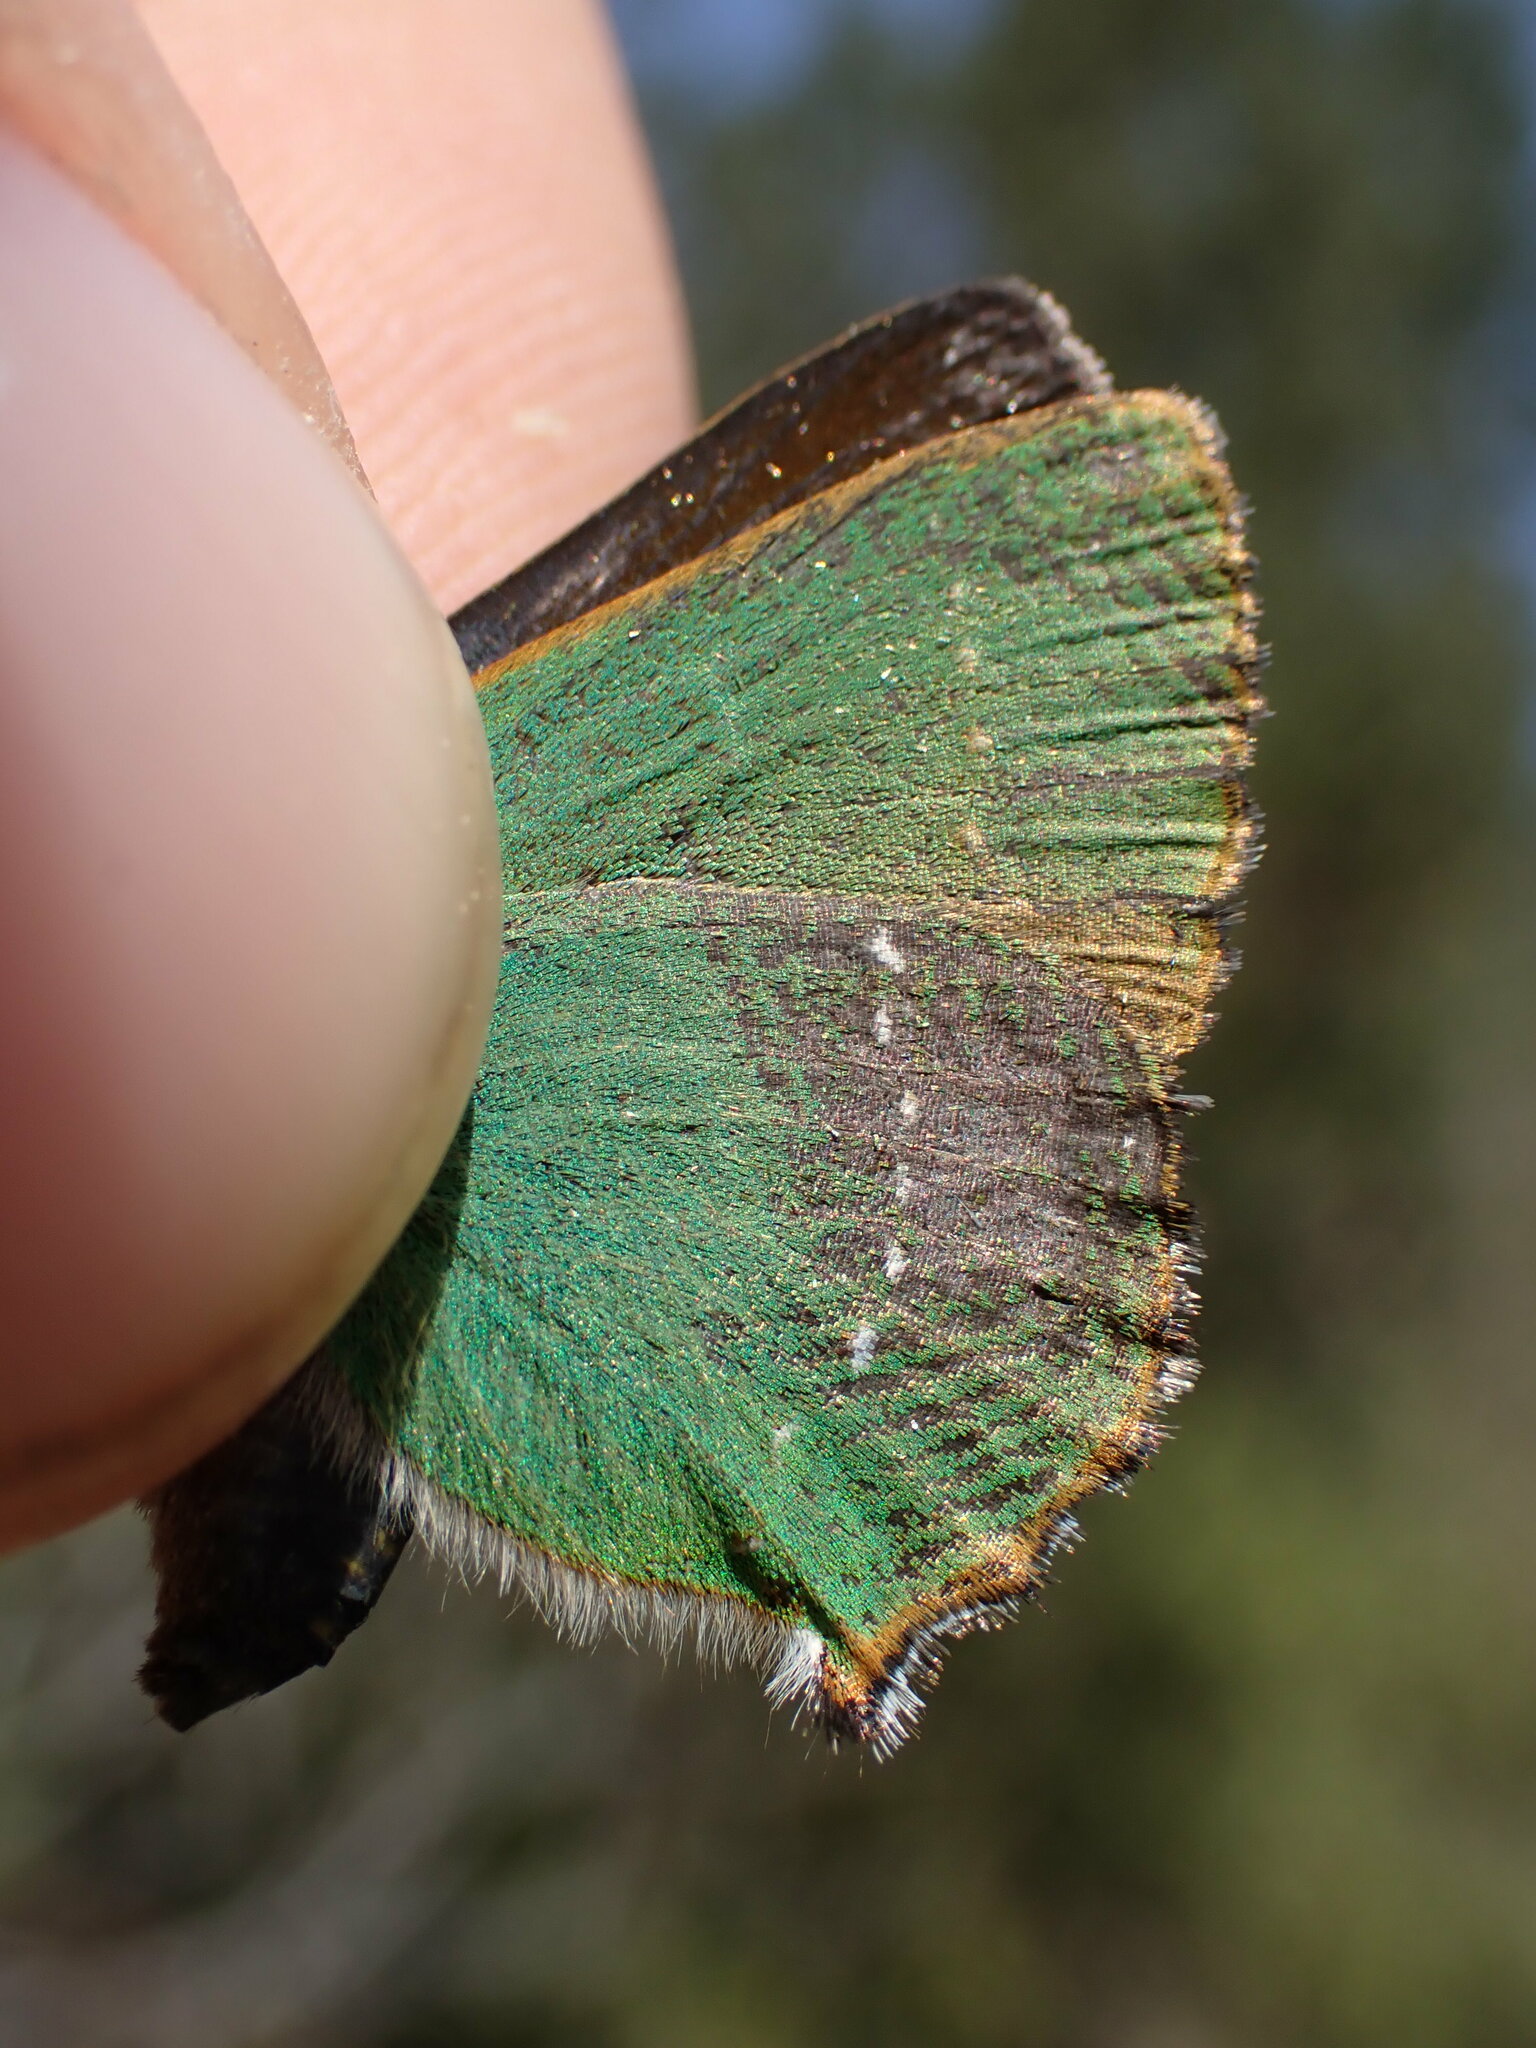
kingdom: Animalia
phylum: Arthropoda
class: Insecta
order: Lepidoptera
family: Lycaenidae
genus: Callophrys
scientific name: Callophrys rubi
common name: Green hairstreak
